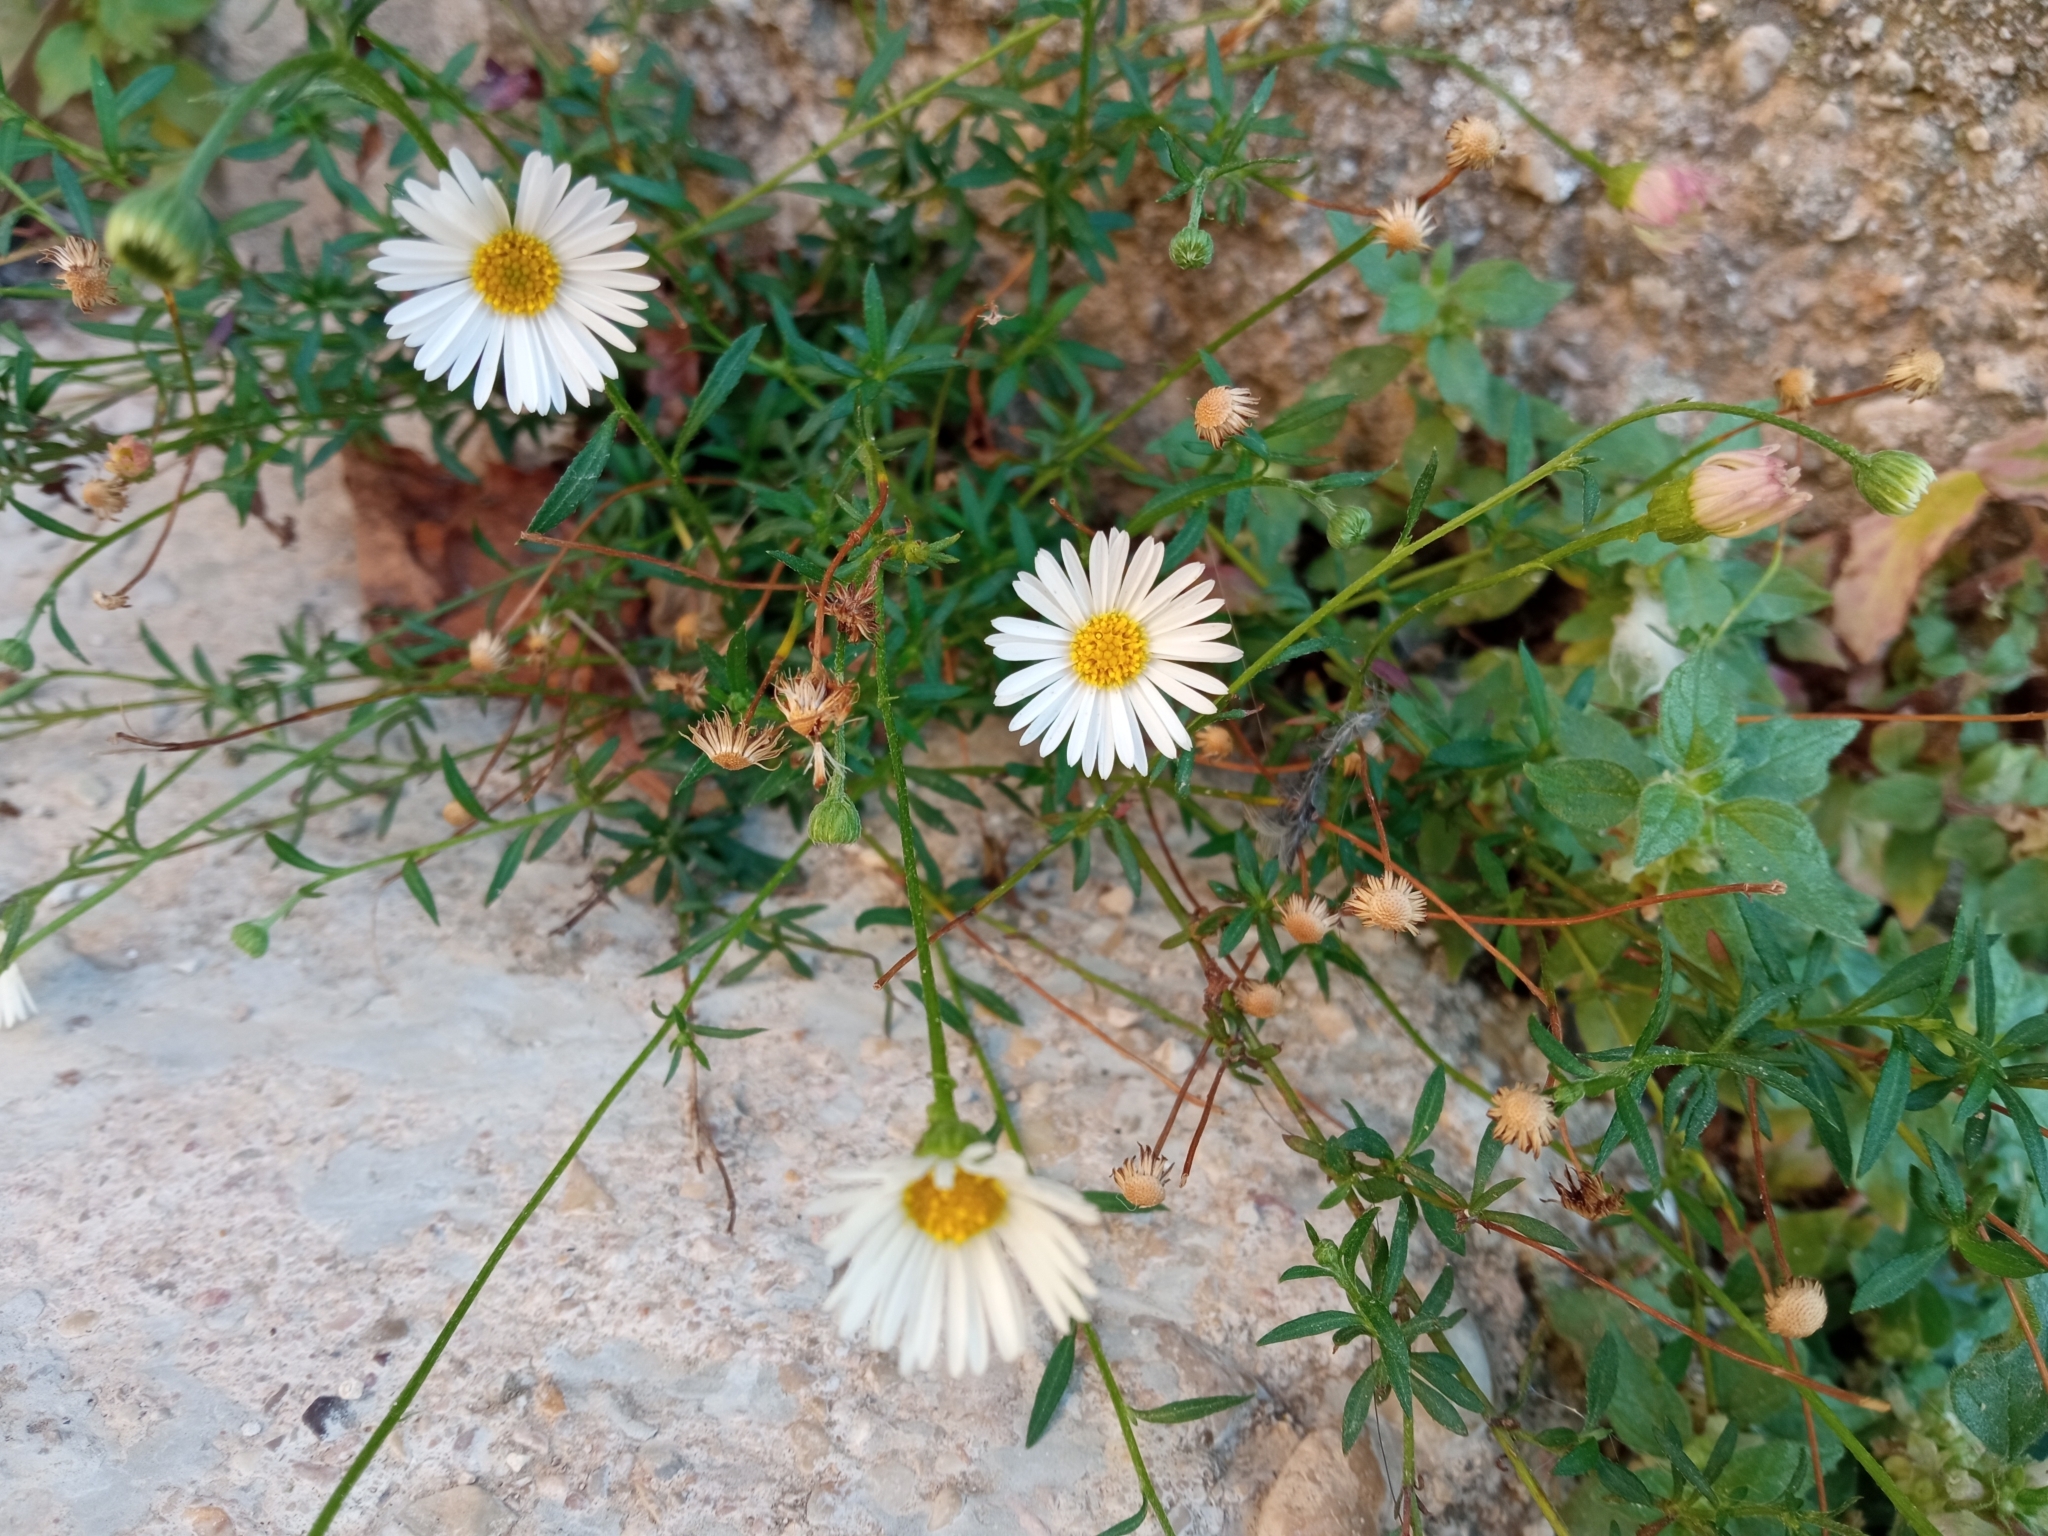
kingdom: Plantae
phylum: Tracheophyta
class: Magnoliopsida
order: Asterales
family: Asteraceae
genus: Erigeron
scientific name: Erigeron karvinskianus
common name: Mexican fleabane
